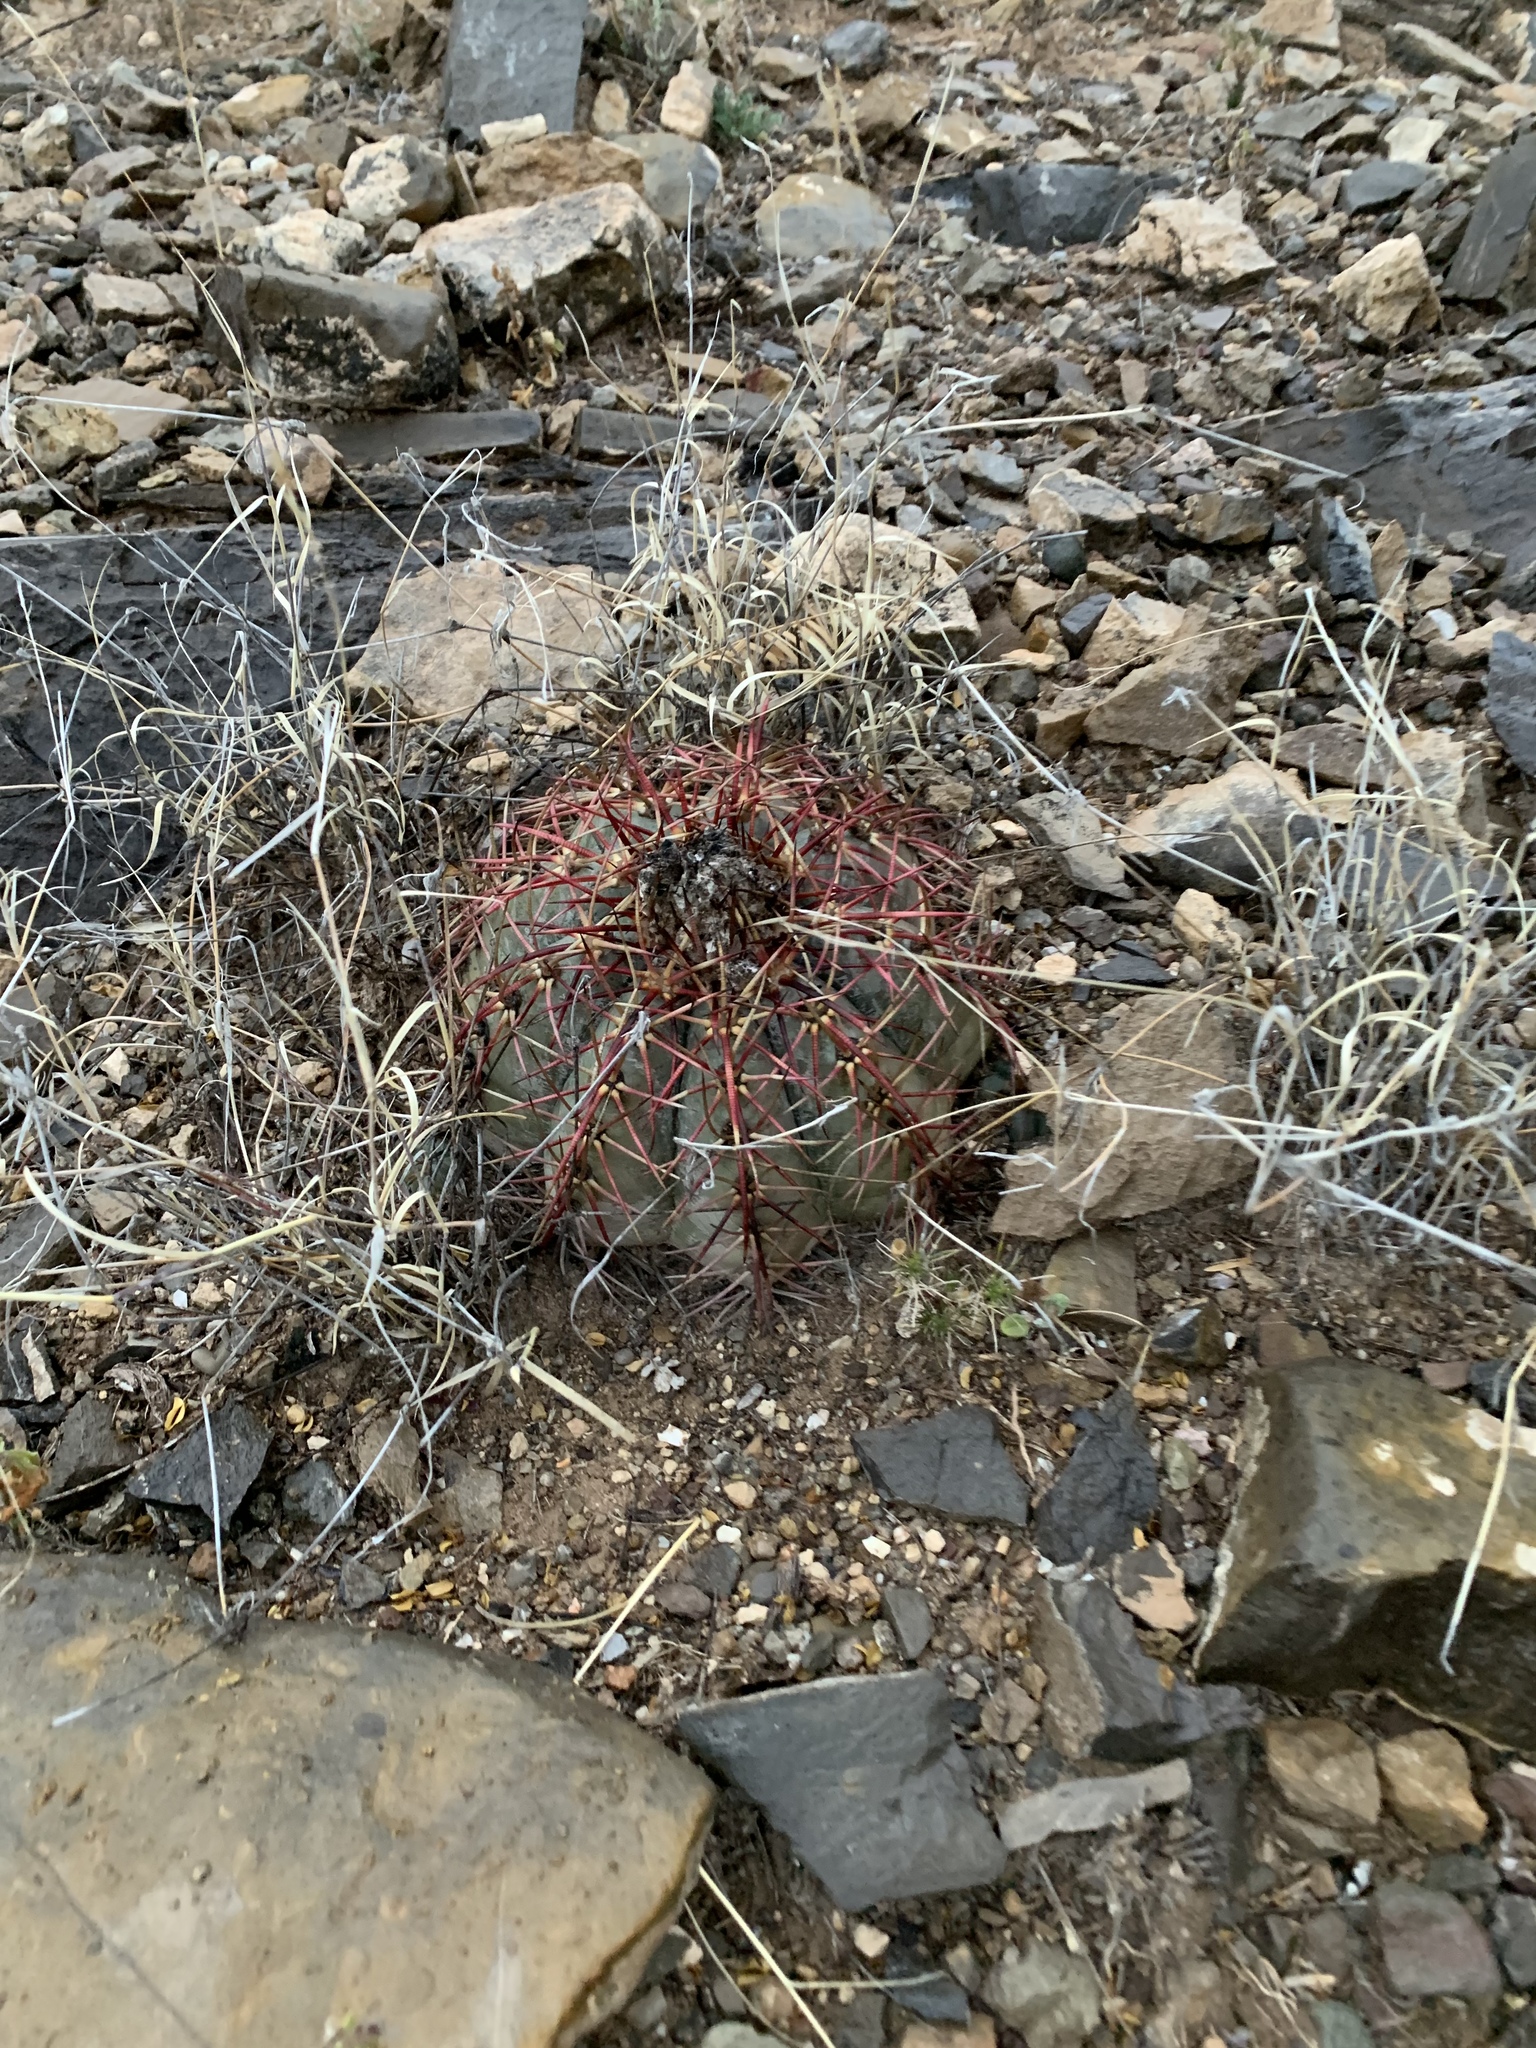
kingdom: Plantae
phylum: Tracheophyta
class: Magnoliopsida
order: Caryophyllales
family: Cactaceae
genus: Echinocactus
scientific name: Echinocactus horizonthalonius
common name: Devilshead
